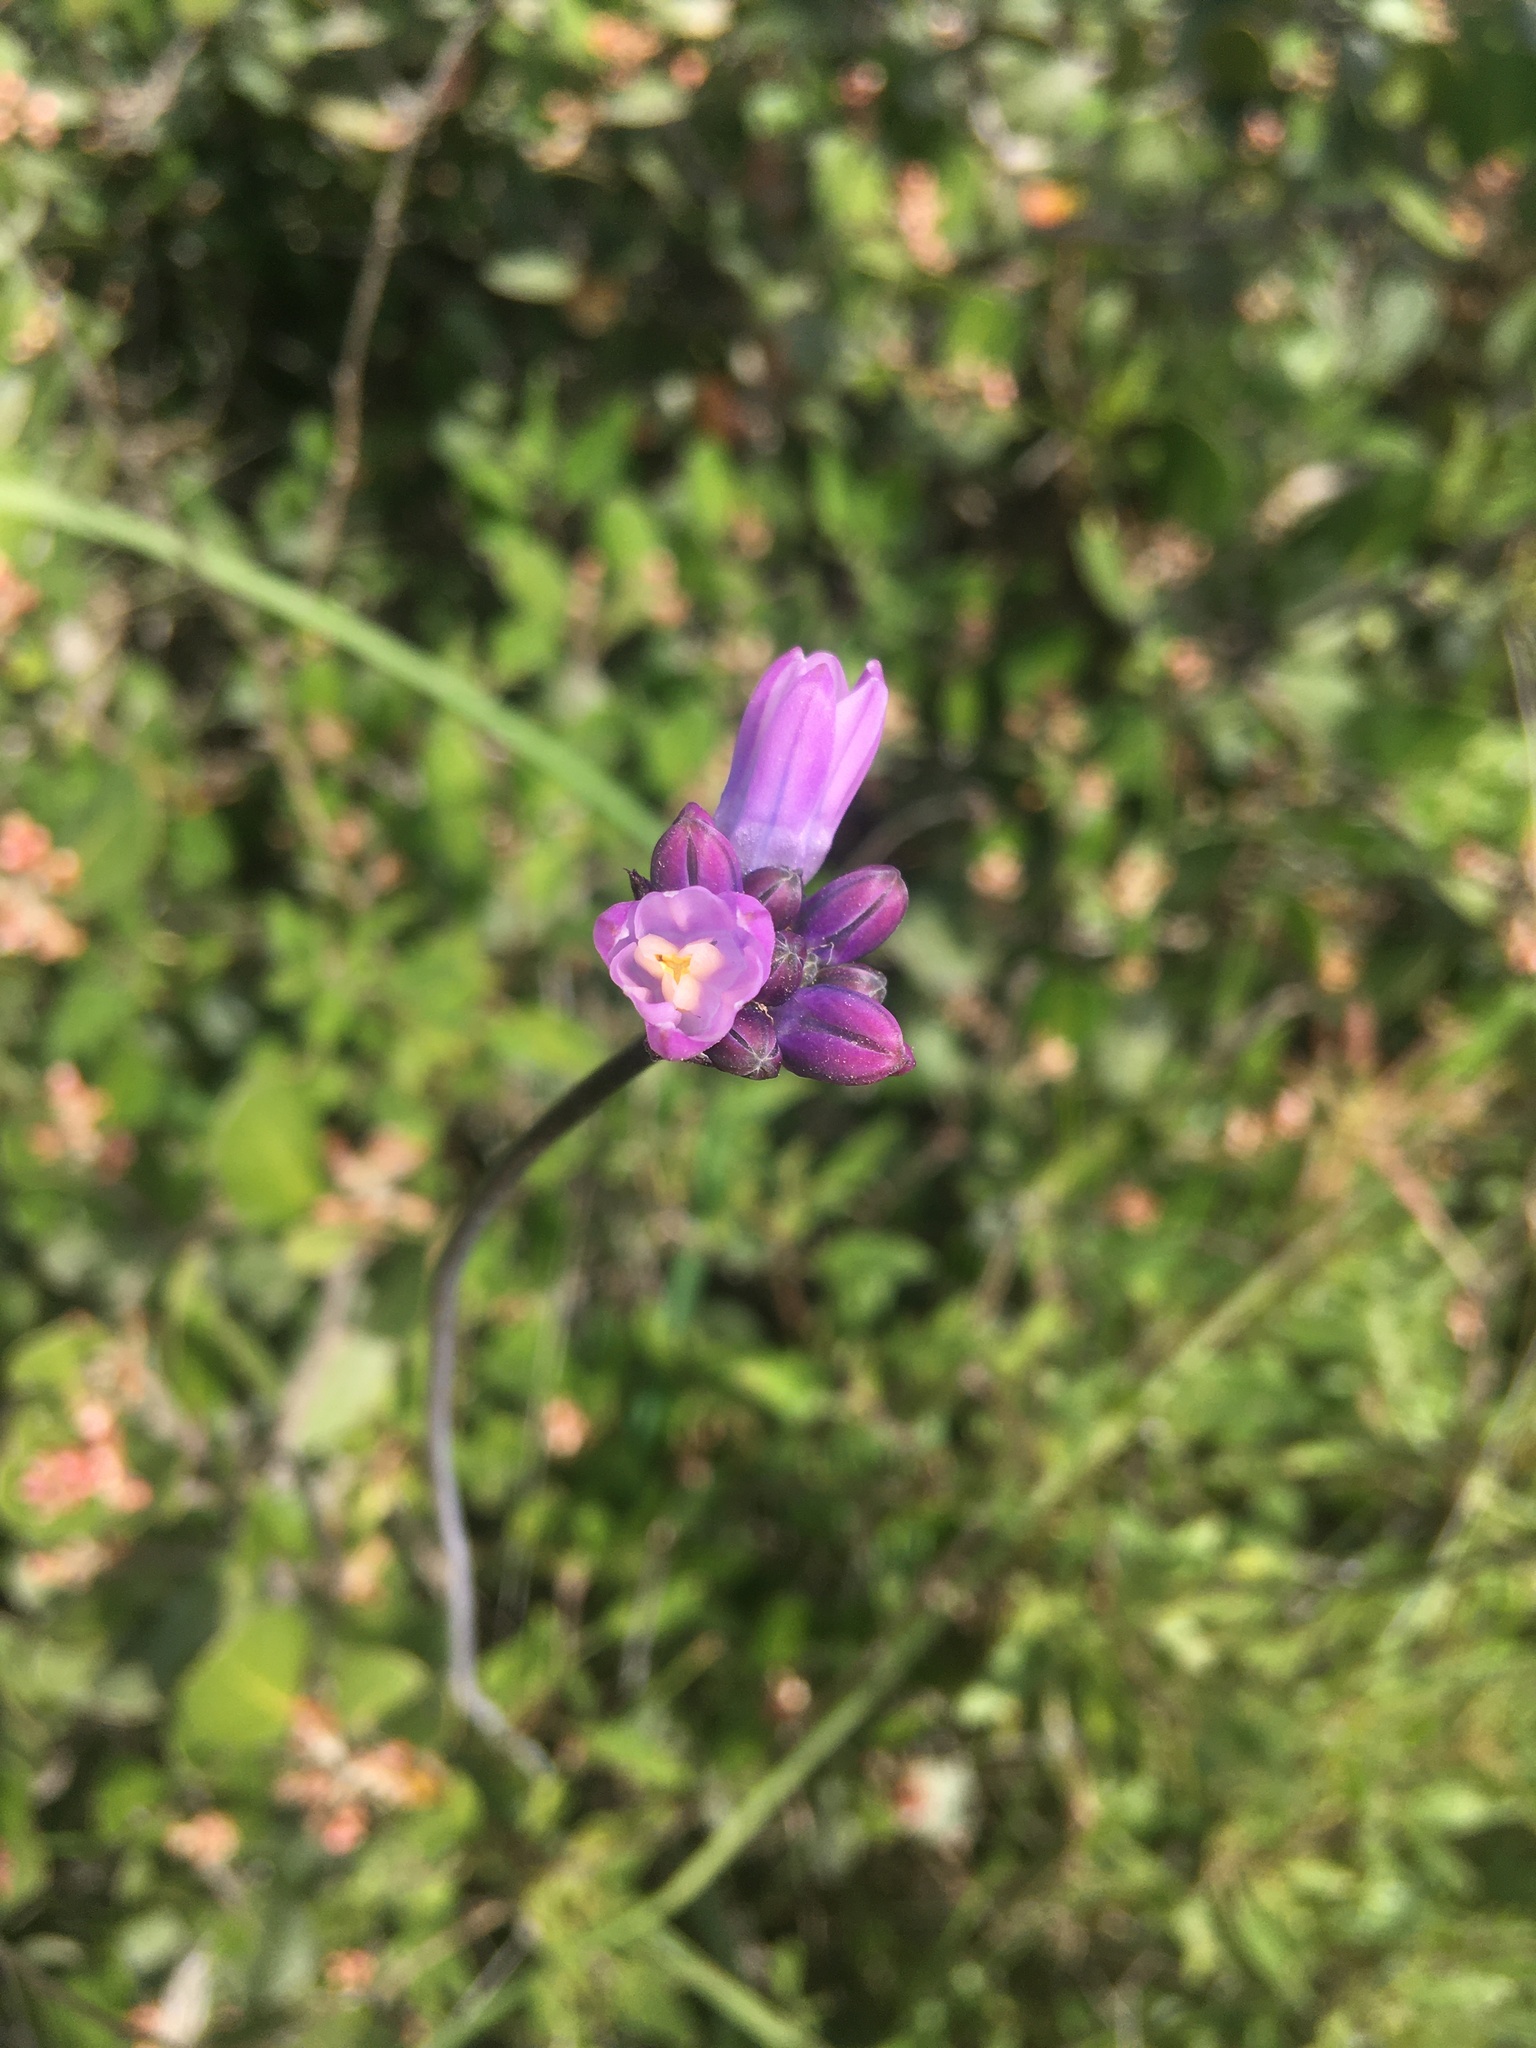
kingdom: Plantae
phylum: Tracheophyta
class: Liliopsida
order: Asparagales
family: Asparagaceae
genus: Dipterostemon
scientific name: Dipterostemon capitatus
